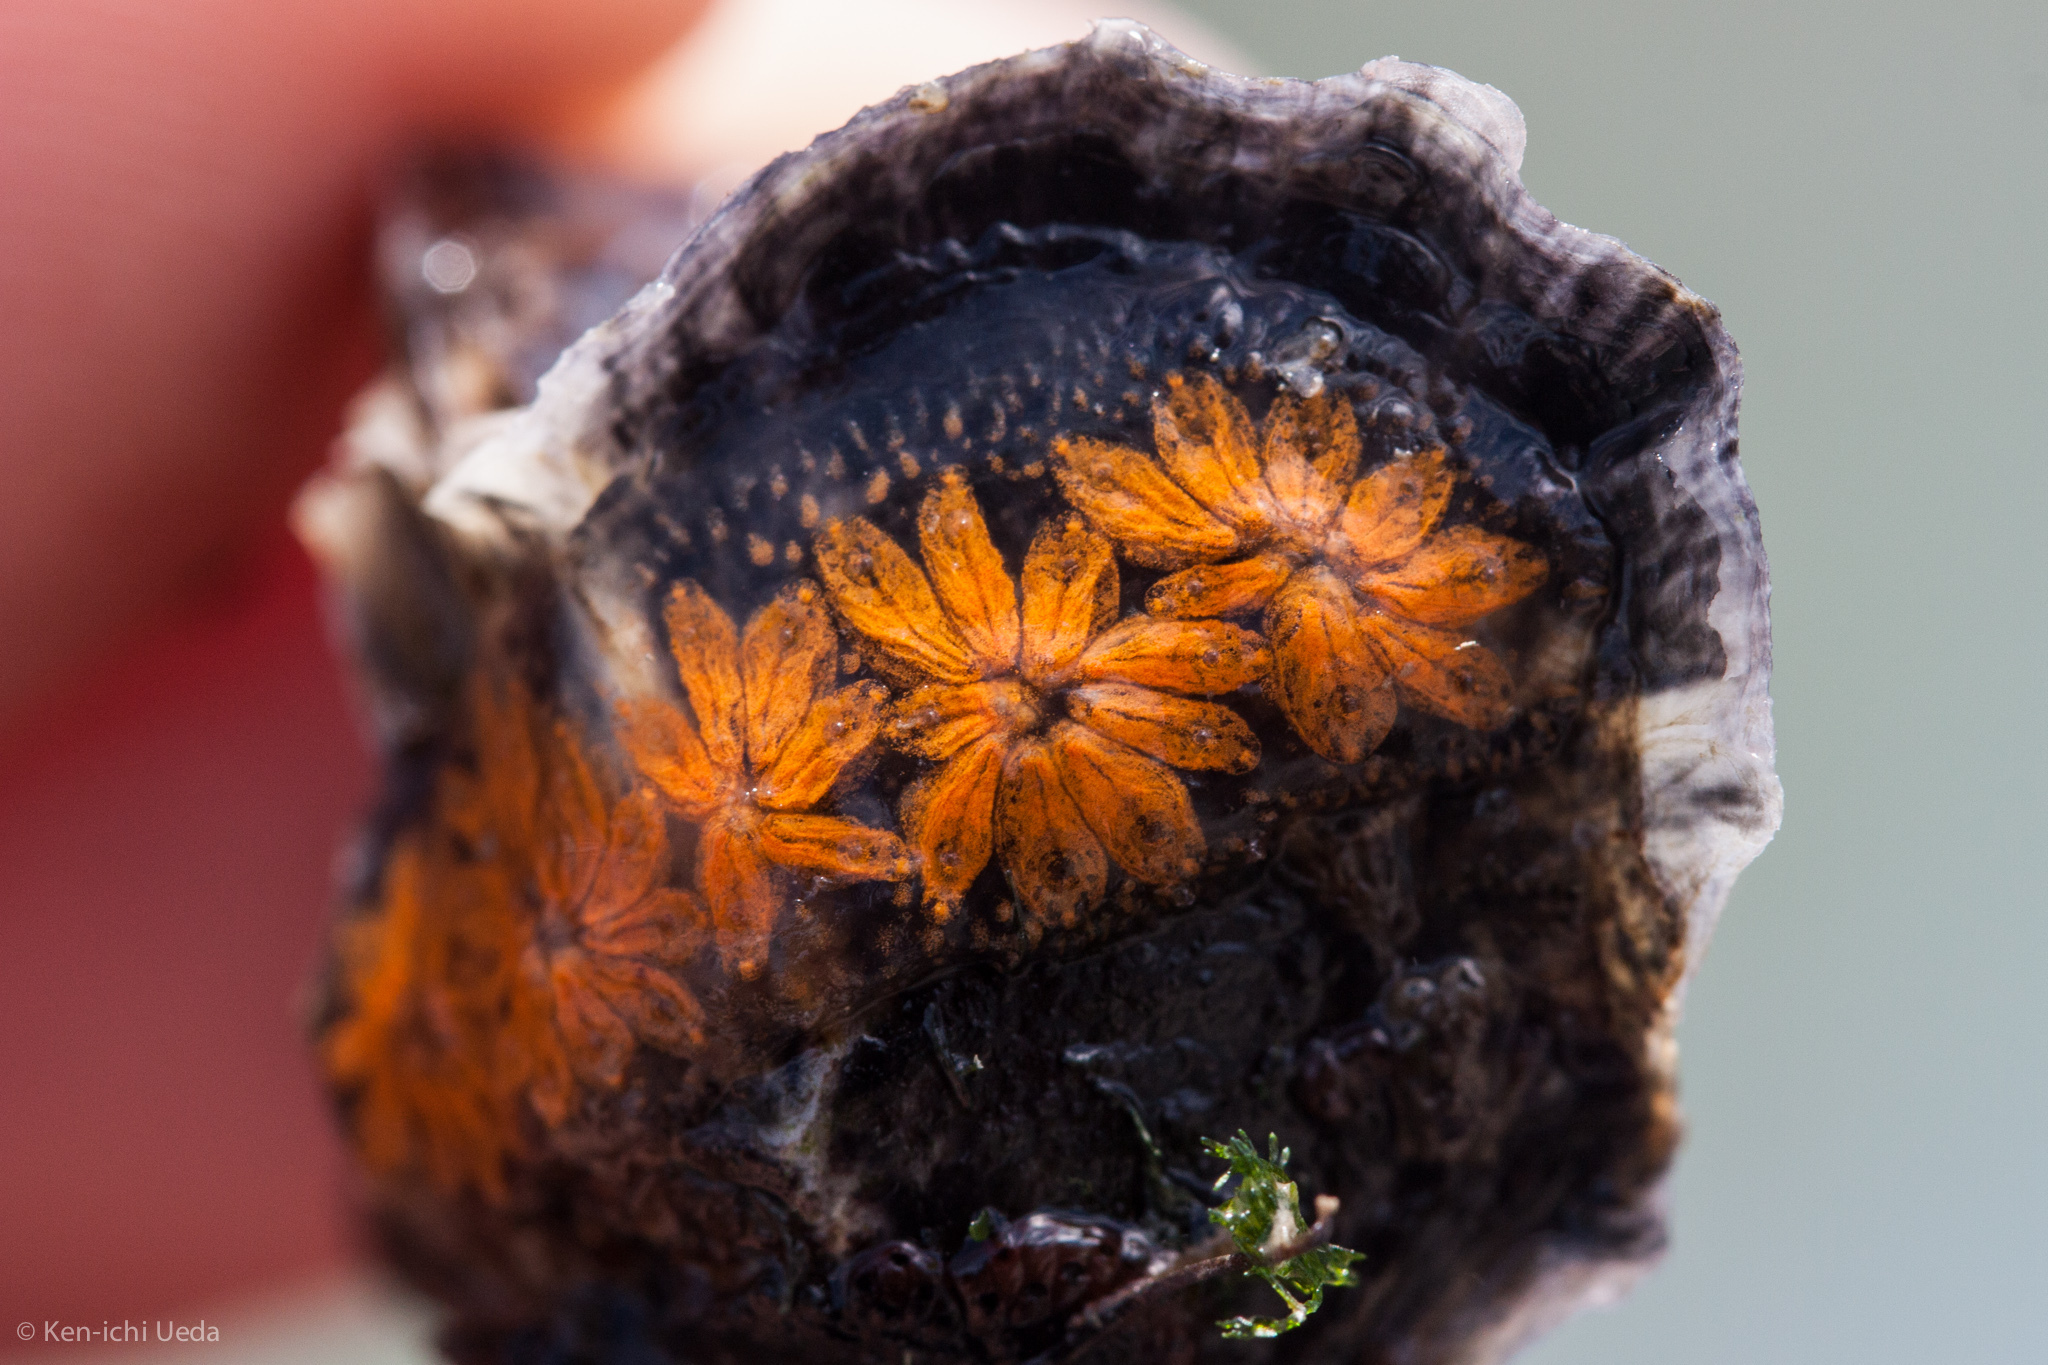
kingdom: Animalia
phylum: Chordata
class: Ascidiacea
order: Stolidobranchia
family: Styelidae
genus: Botryllus
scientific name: Botryllus schlosseri
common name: Golden star tunicate
